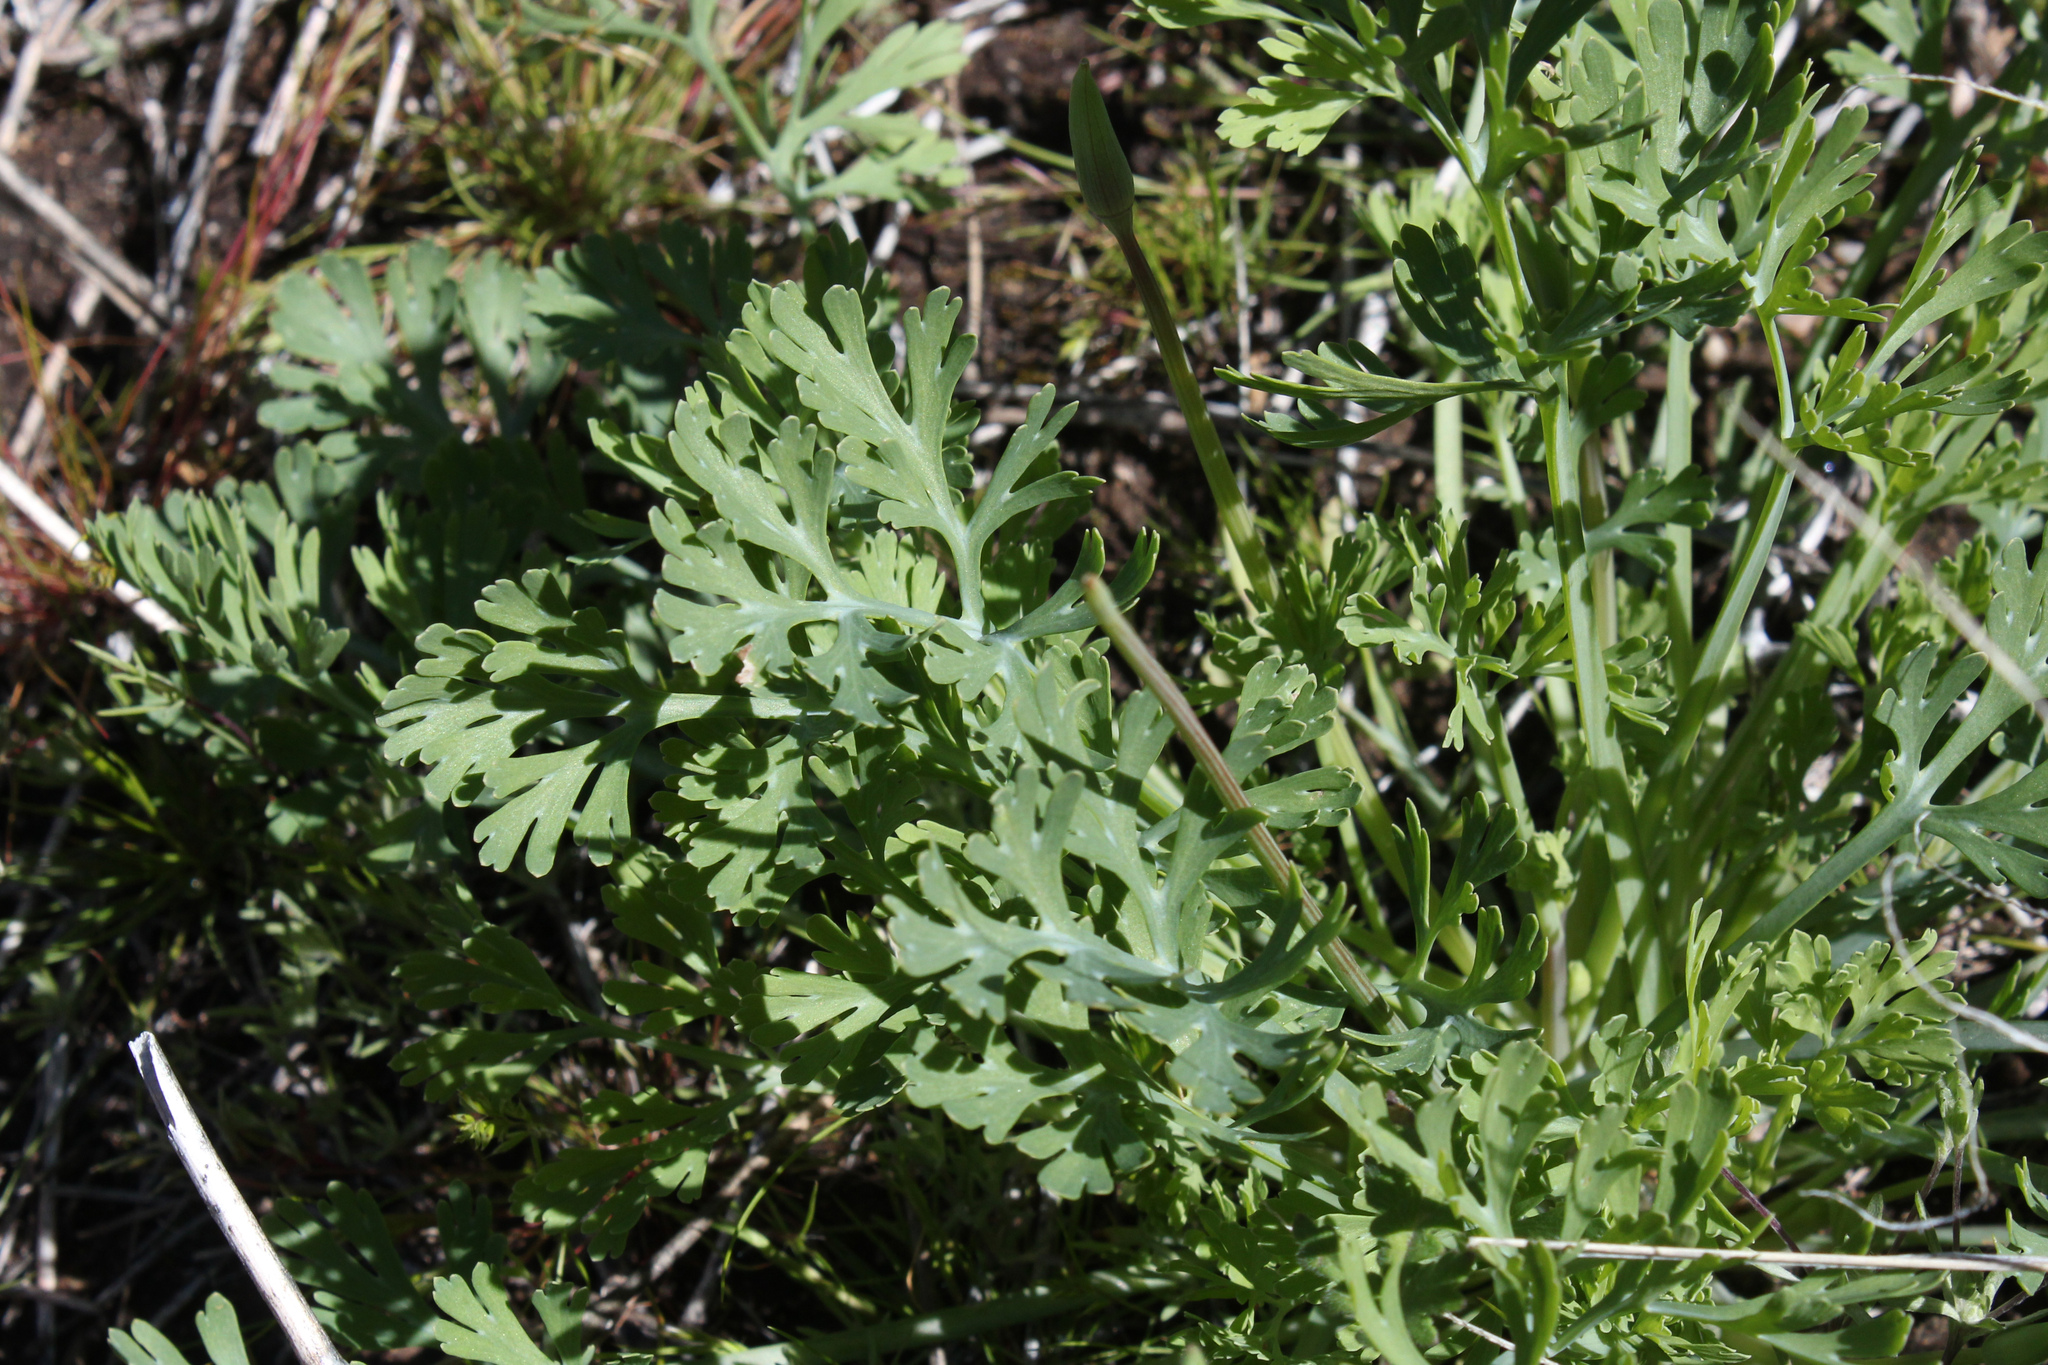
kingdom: Plantae
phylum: Tracheophyta
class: Magnoliopsida
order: Ranunculales
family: Papaveraceae
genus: Eschscholzia
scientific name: Eschscholzia californica
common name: California poppy
